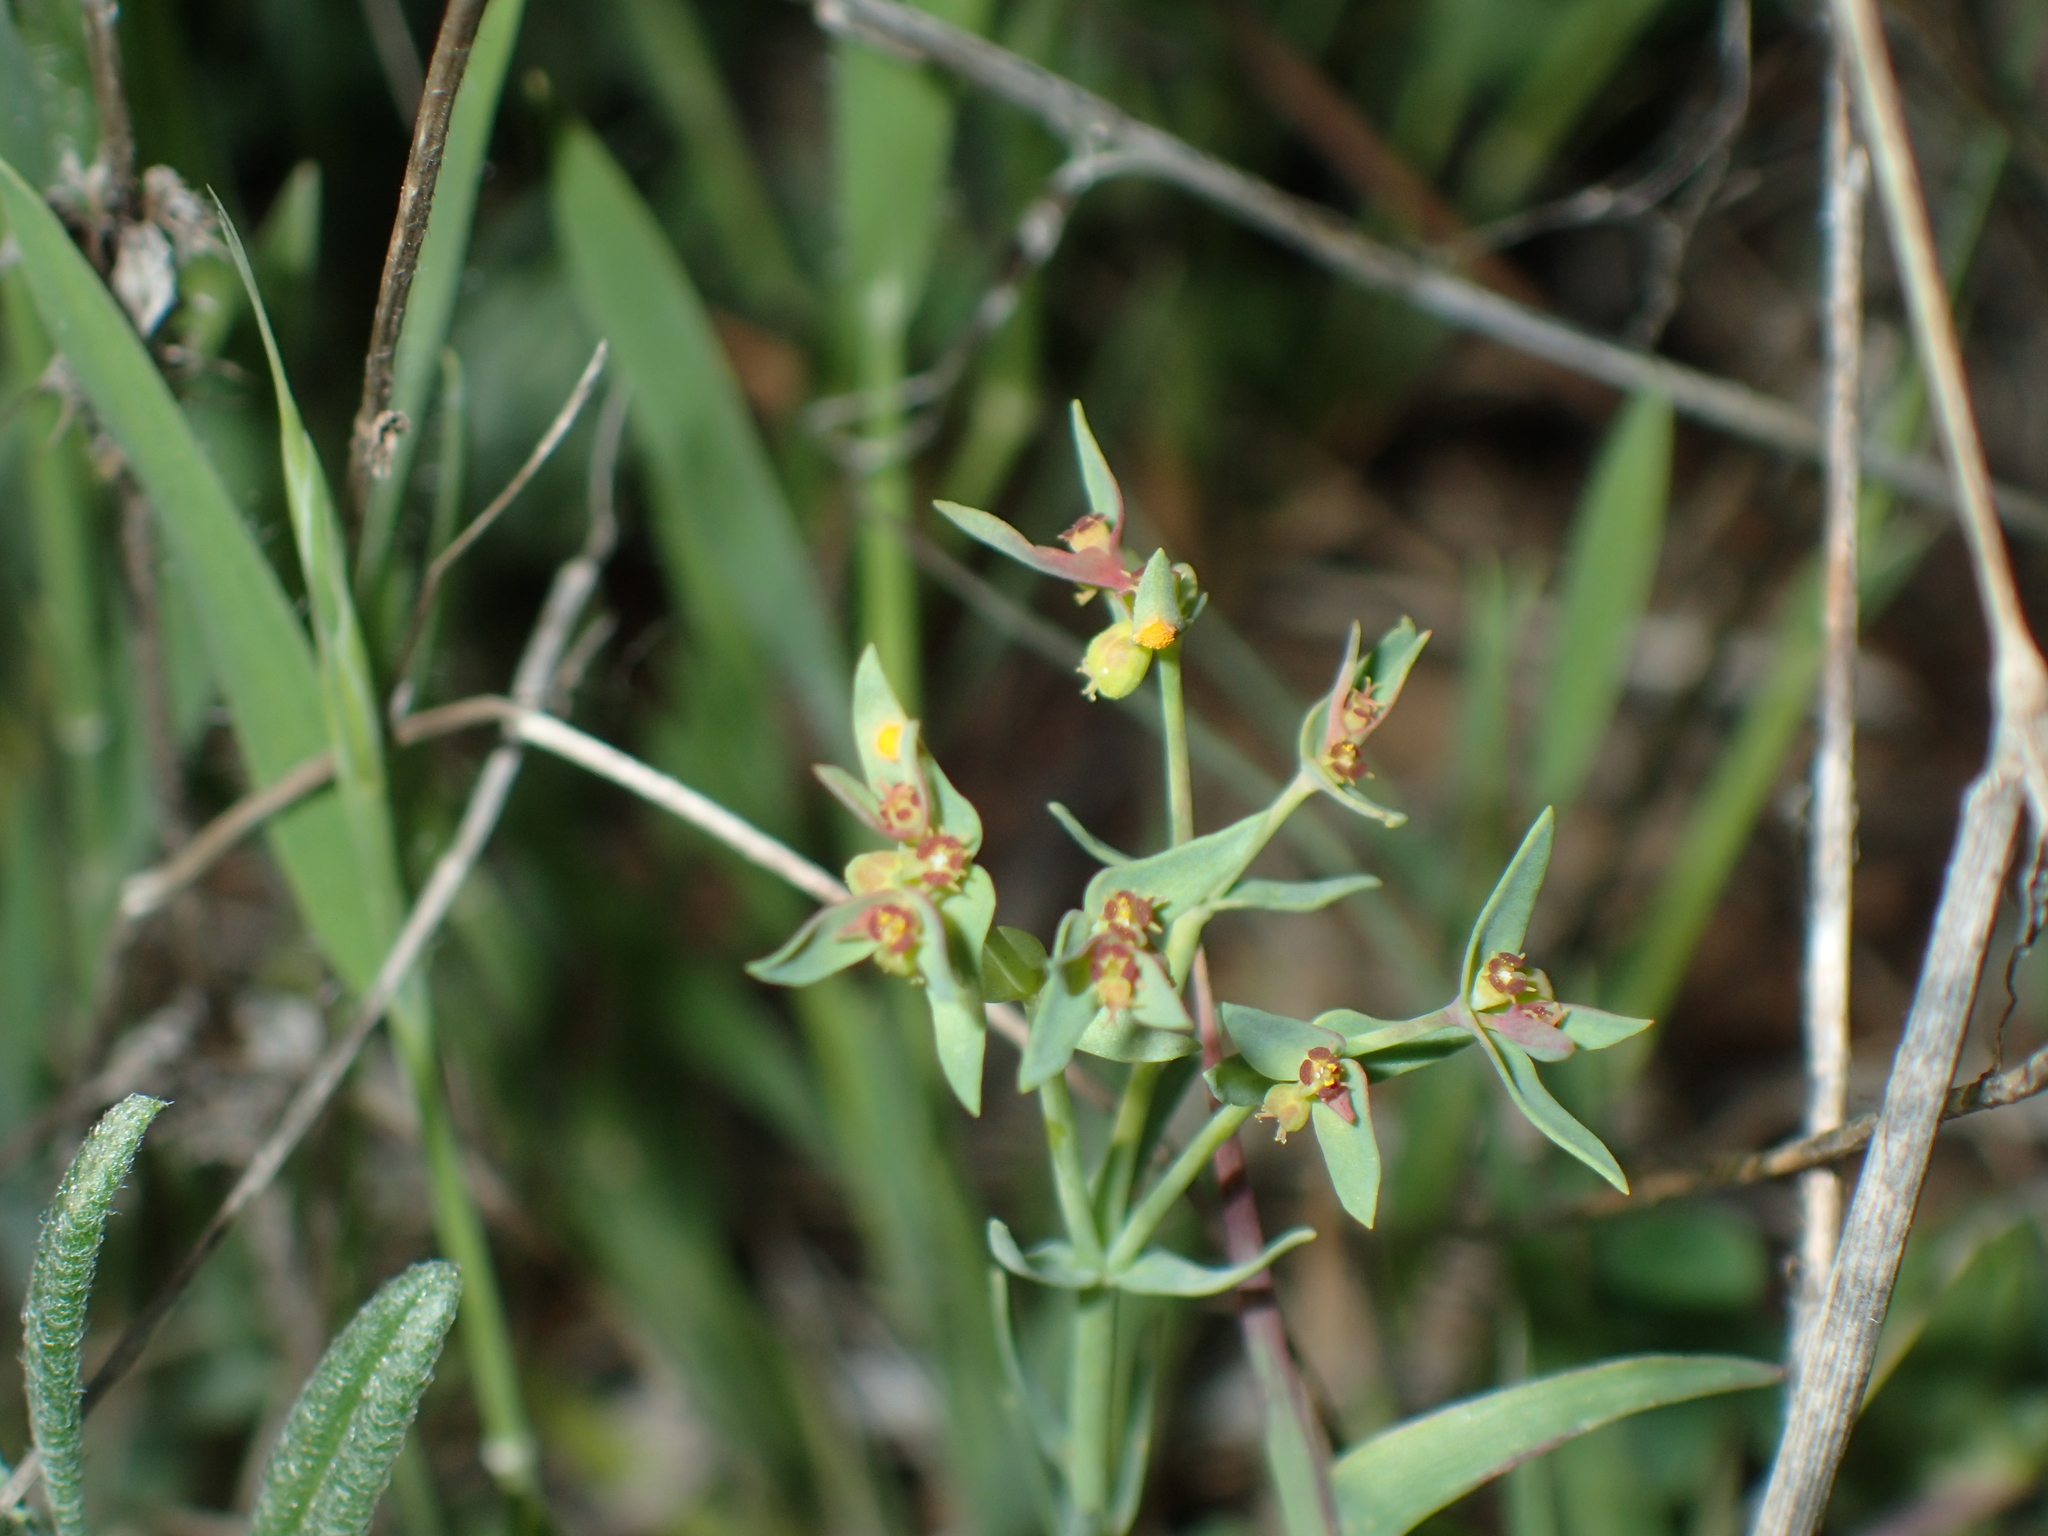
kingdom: Plantae
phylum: Tracheophyta
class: Magnoliopsida
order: Malpighiales
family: Euphorbiaceae
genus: Euphorbia
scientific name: Euphorbia exigua
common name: Dwarf spurge
